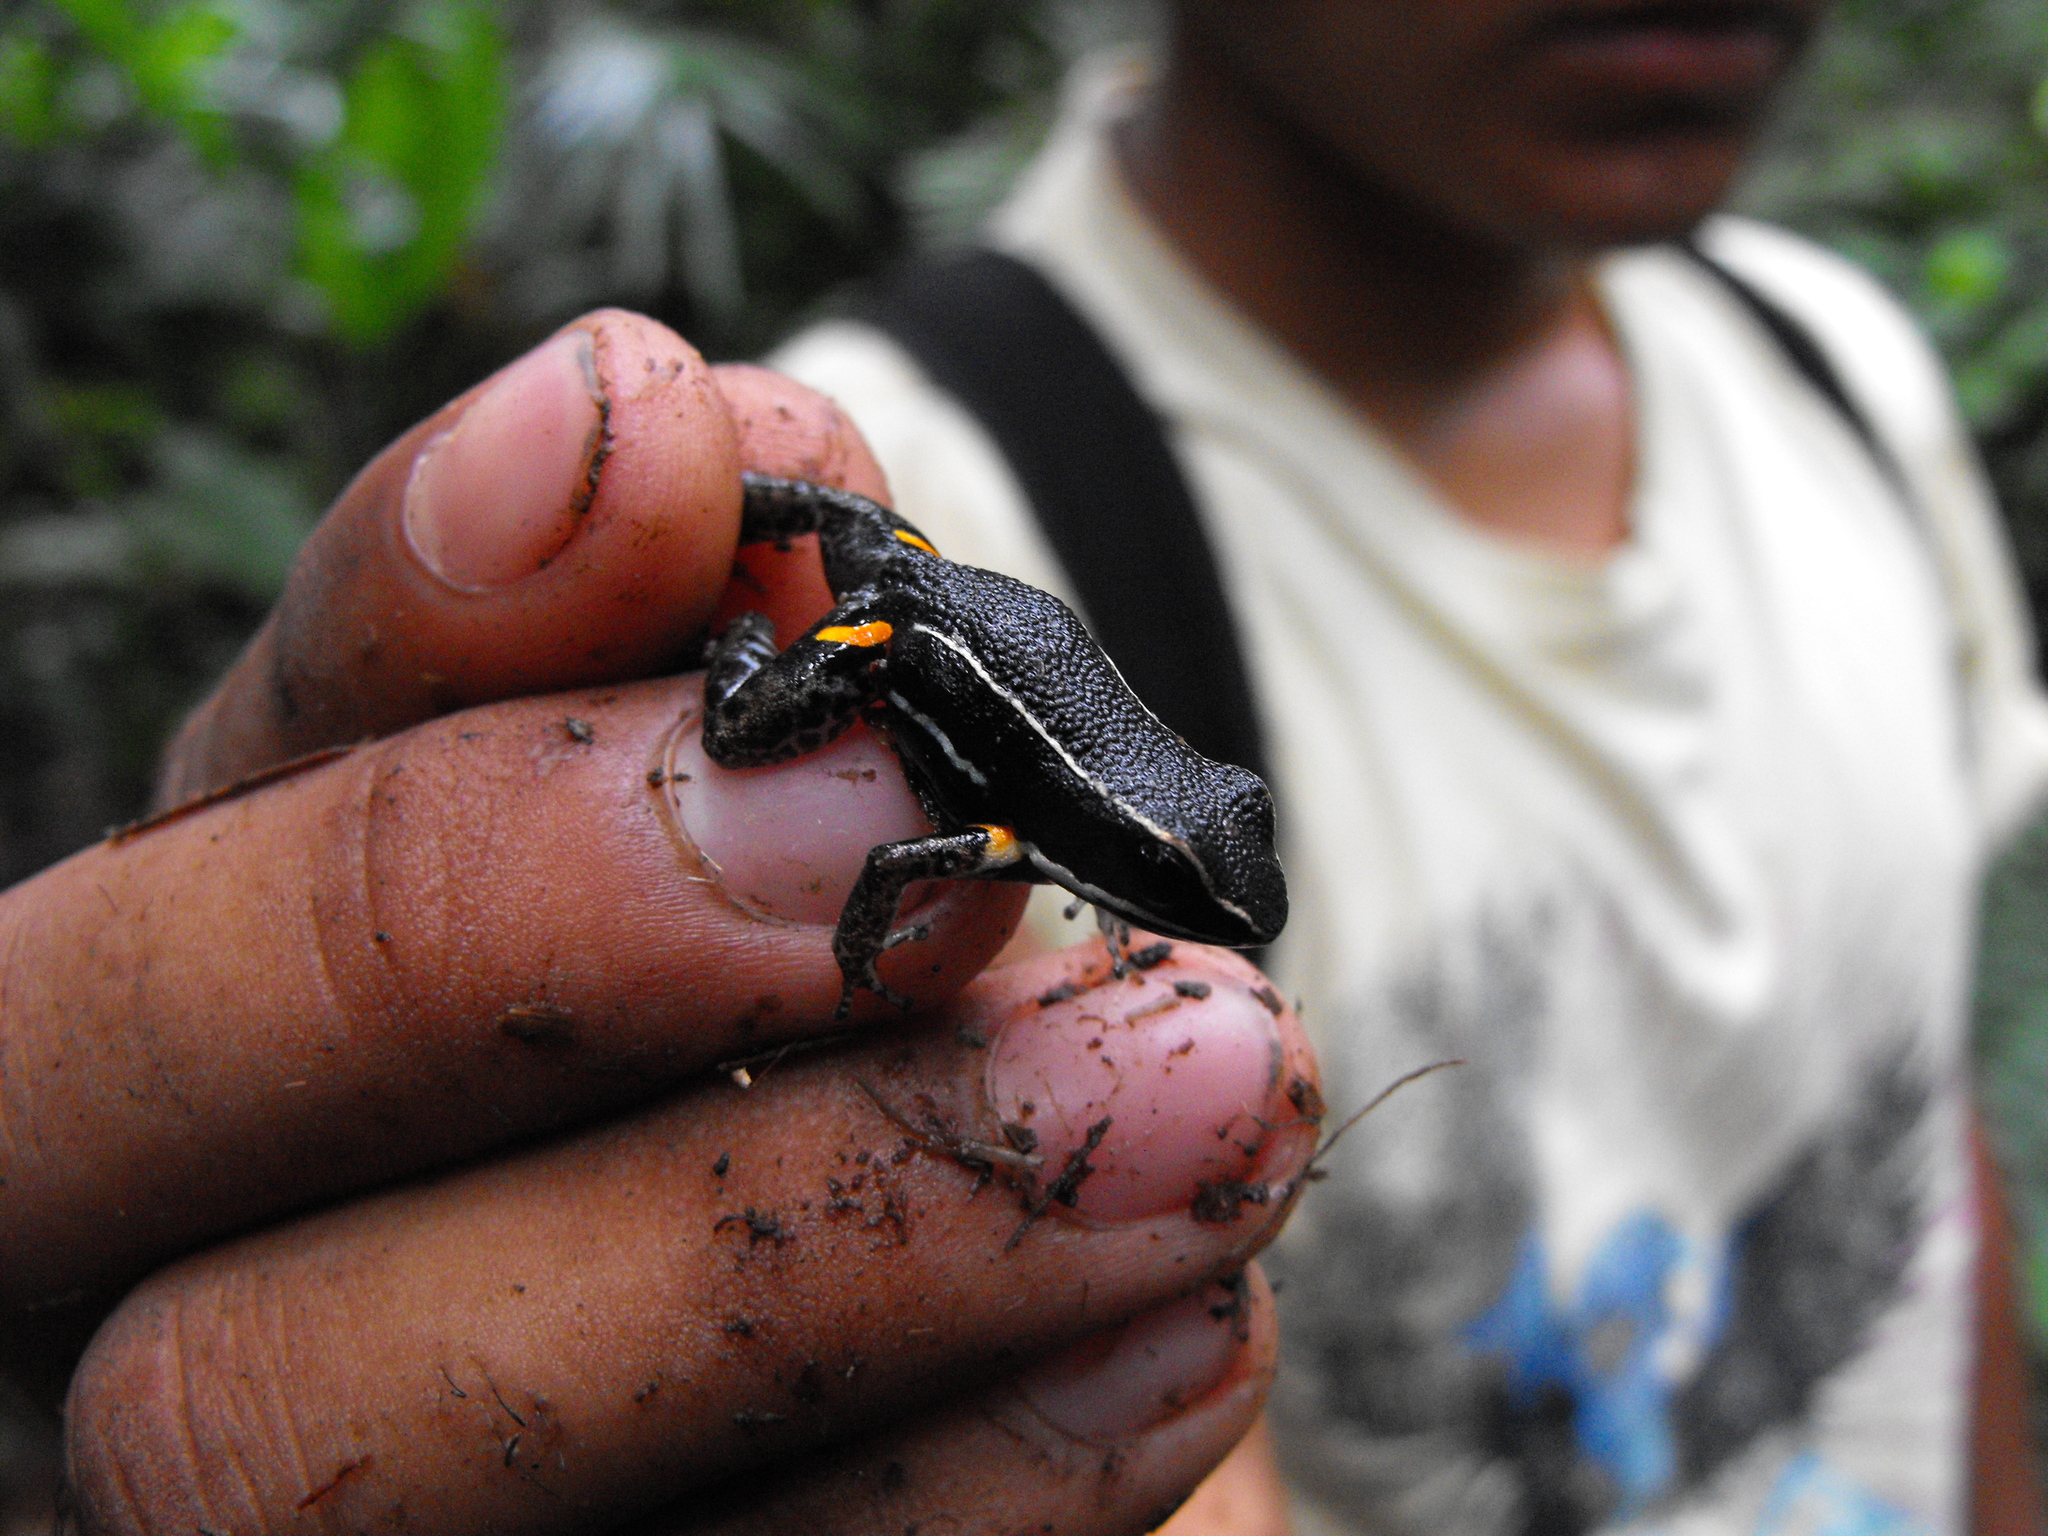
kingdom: Animalia
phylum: Chordata
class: Amphibia
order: Anura
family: Dendrobatidae
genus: Ameerega
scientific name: Ameerega picta
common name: Spot-legged poison frog
